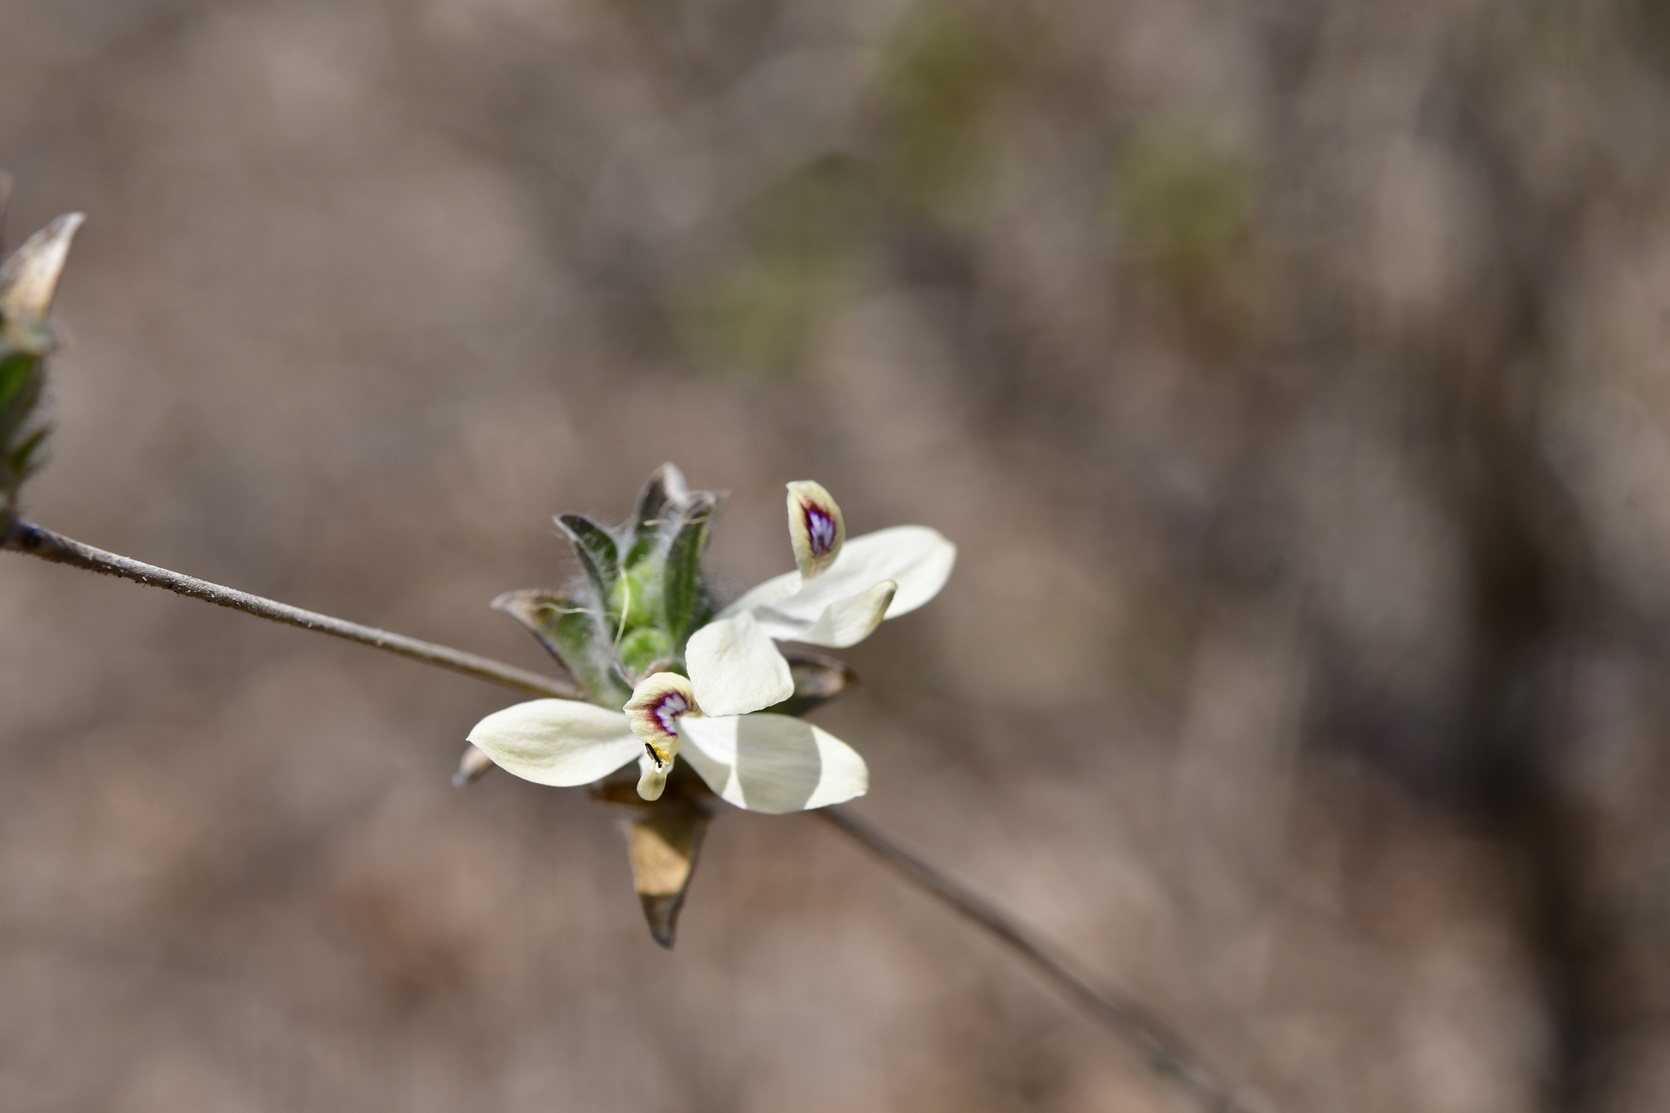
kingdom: Plantae
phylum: Tracheophyta
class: Magnoliopsida
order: Lamiales
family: Acanthaceae
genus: Tetramerium
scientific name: Tetramerium nervosum
